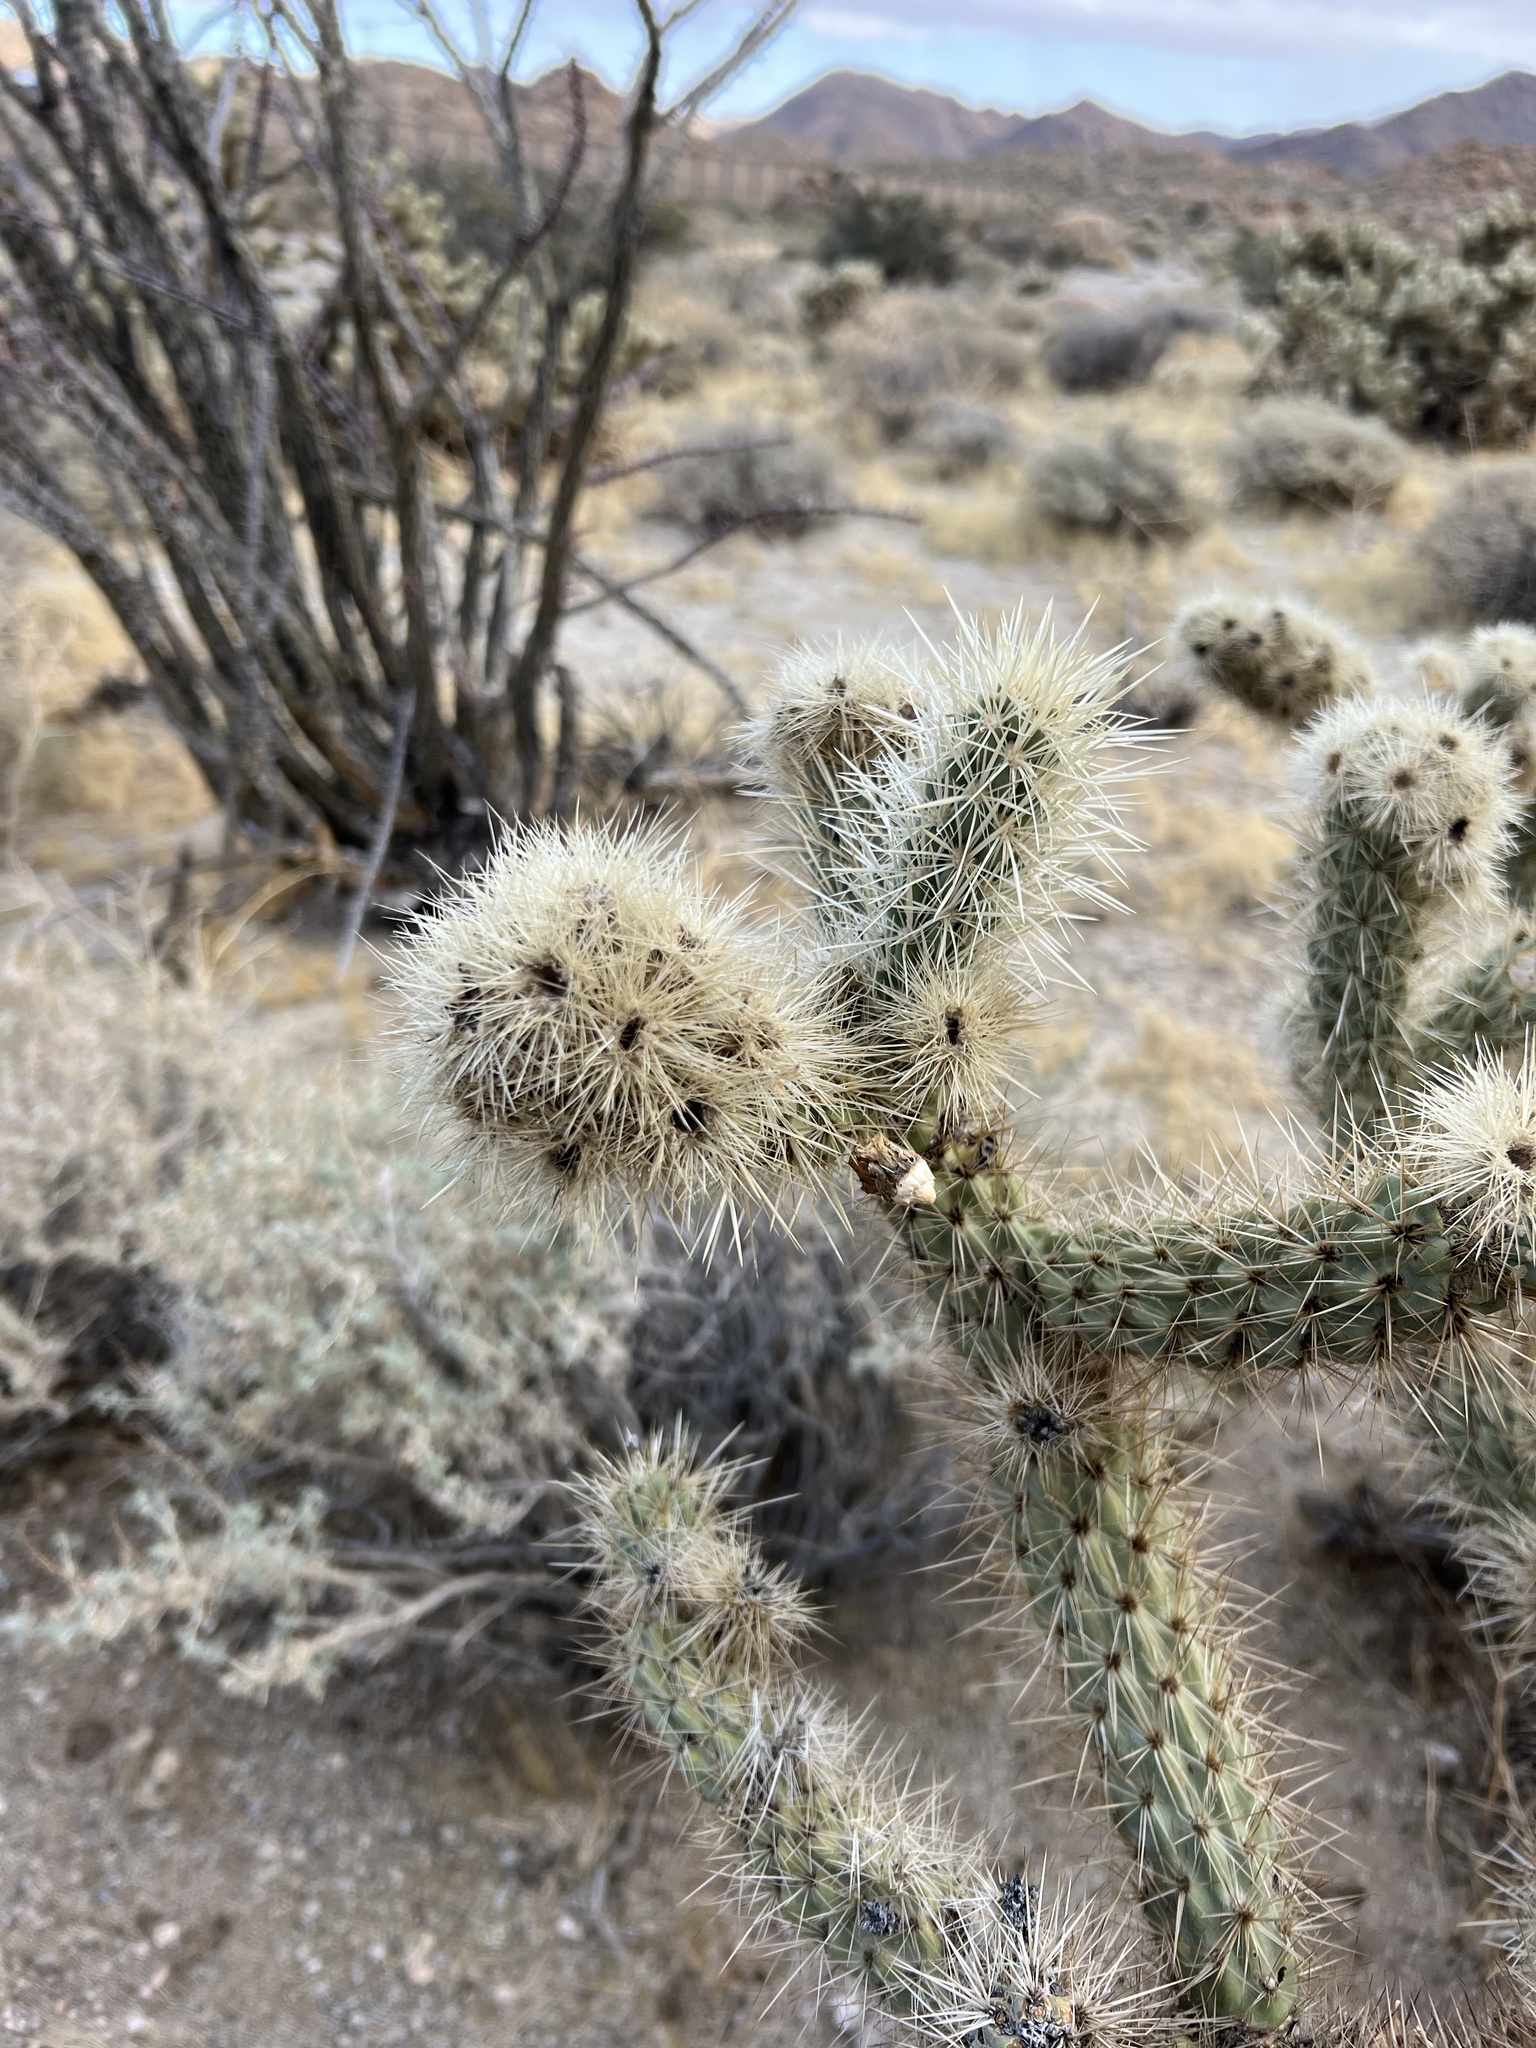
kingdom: Plantae
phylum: Tracheophyta
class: Magnoliopsida
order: Caryophyllales
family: Cactaceae
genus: Cylindropuntia
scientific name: Cylindropuntia wolfii
